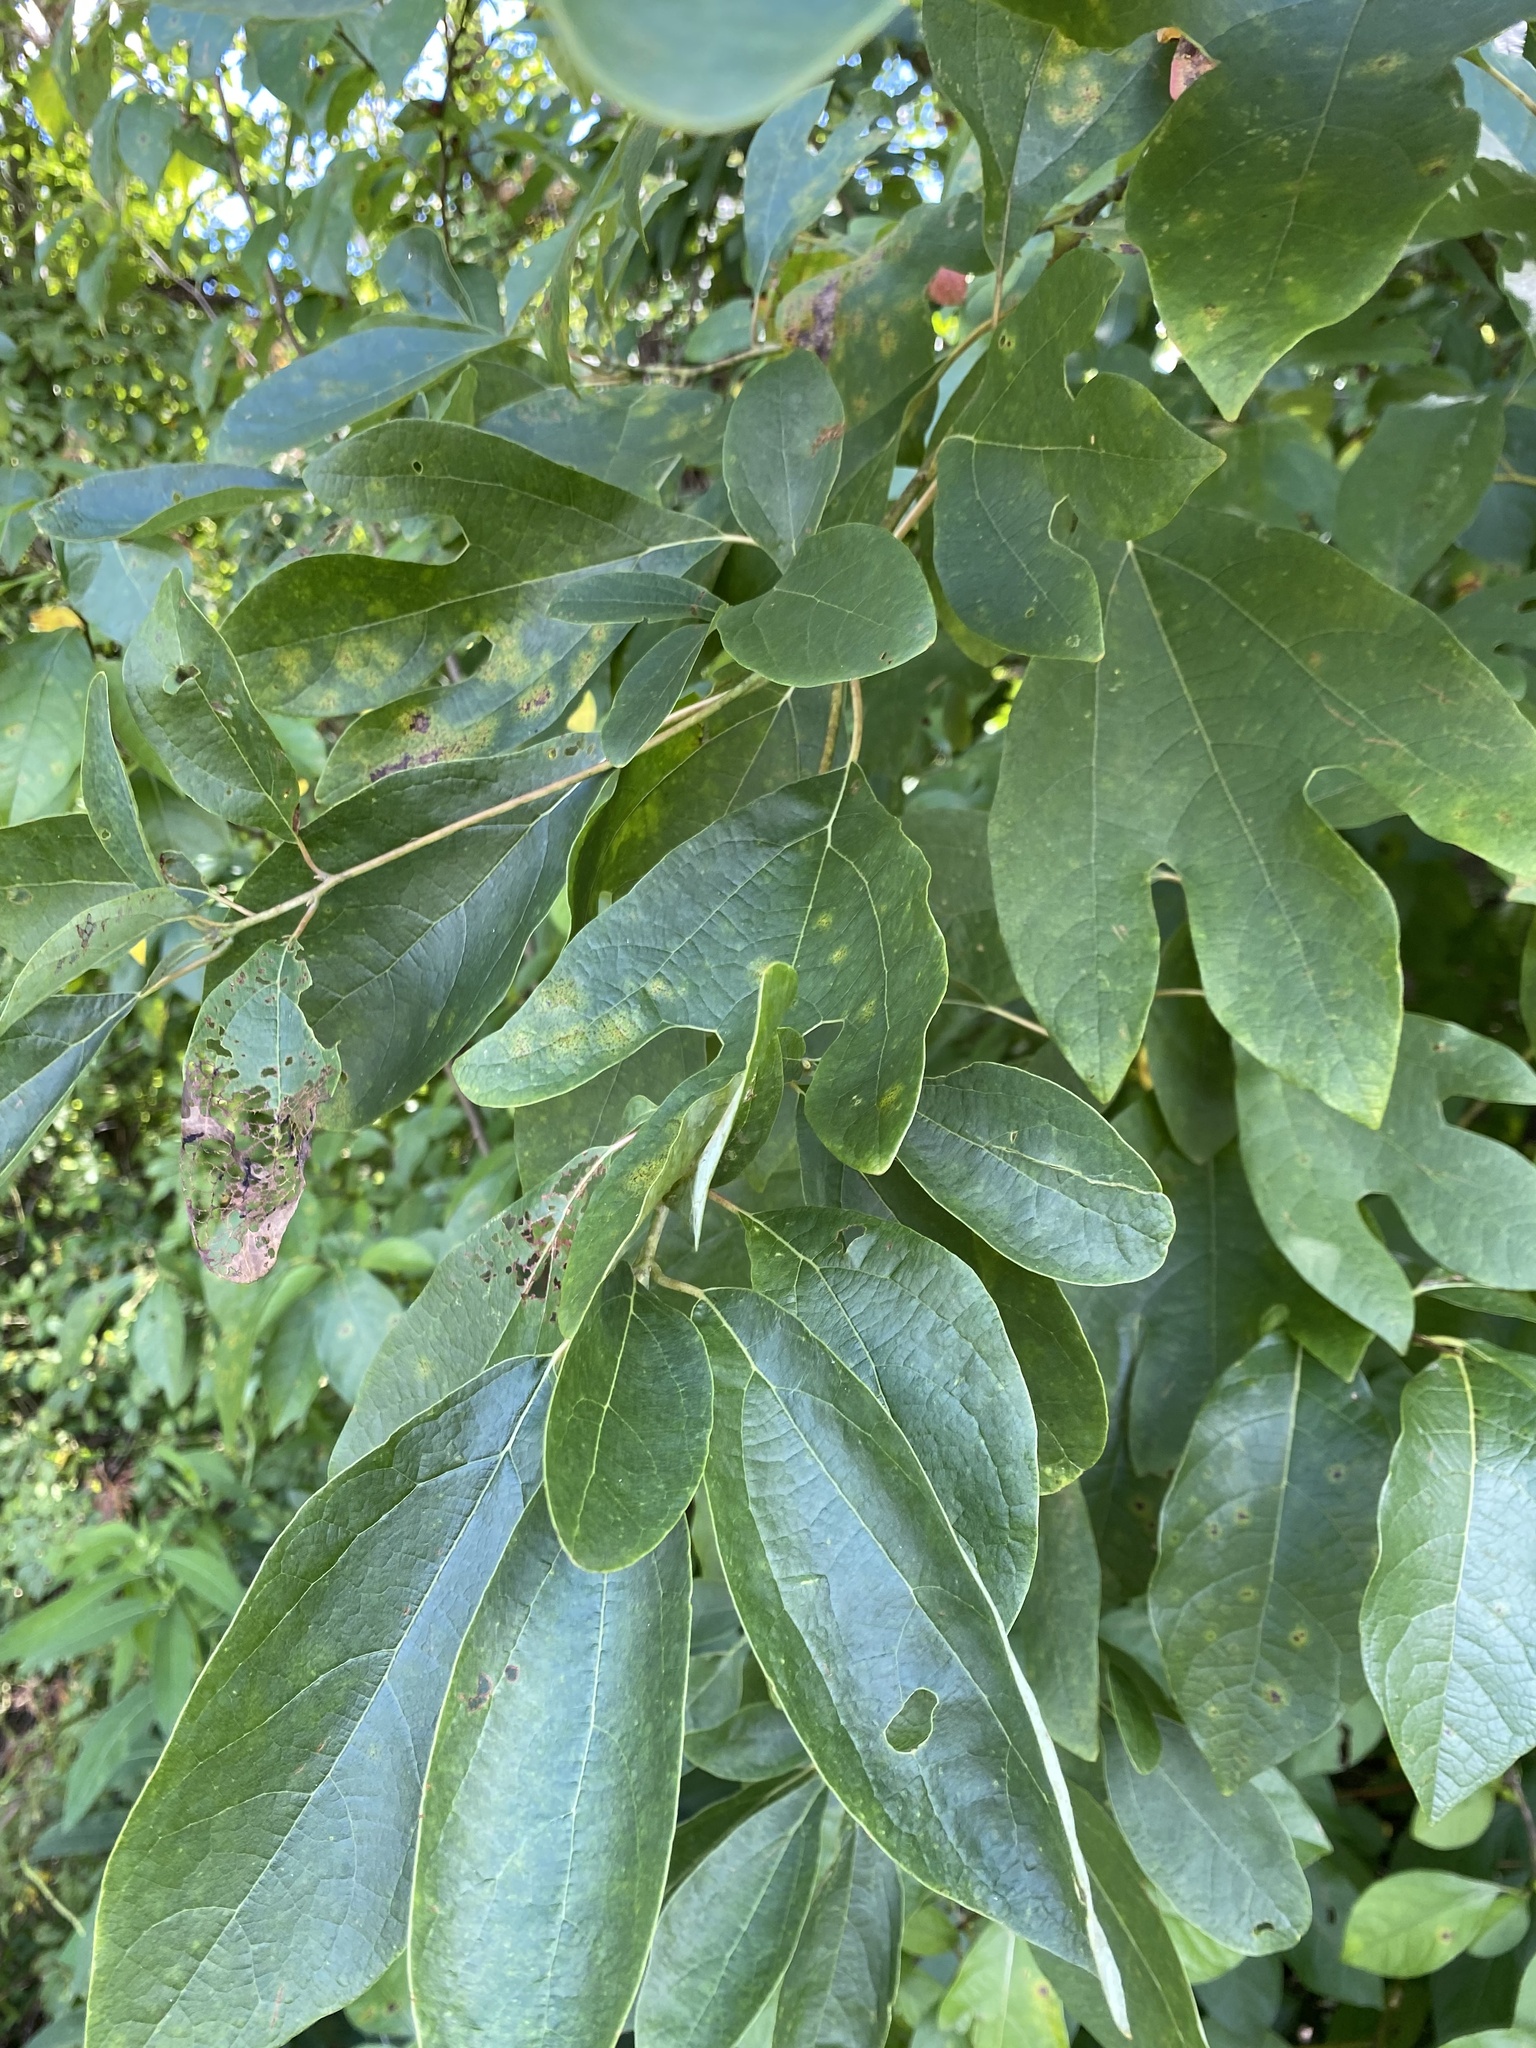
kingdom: Plantae
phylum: Tracheophyta
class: Magnoliopsida
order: Laurales
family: Lauraceae
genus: Sassafras
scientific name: Sassafras albidum
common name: Sassafras
